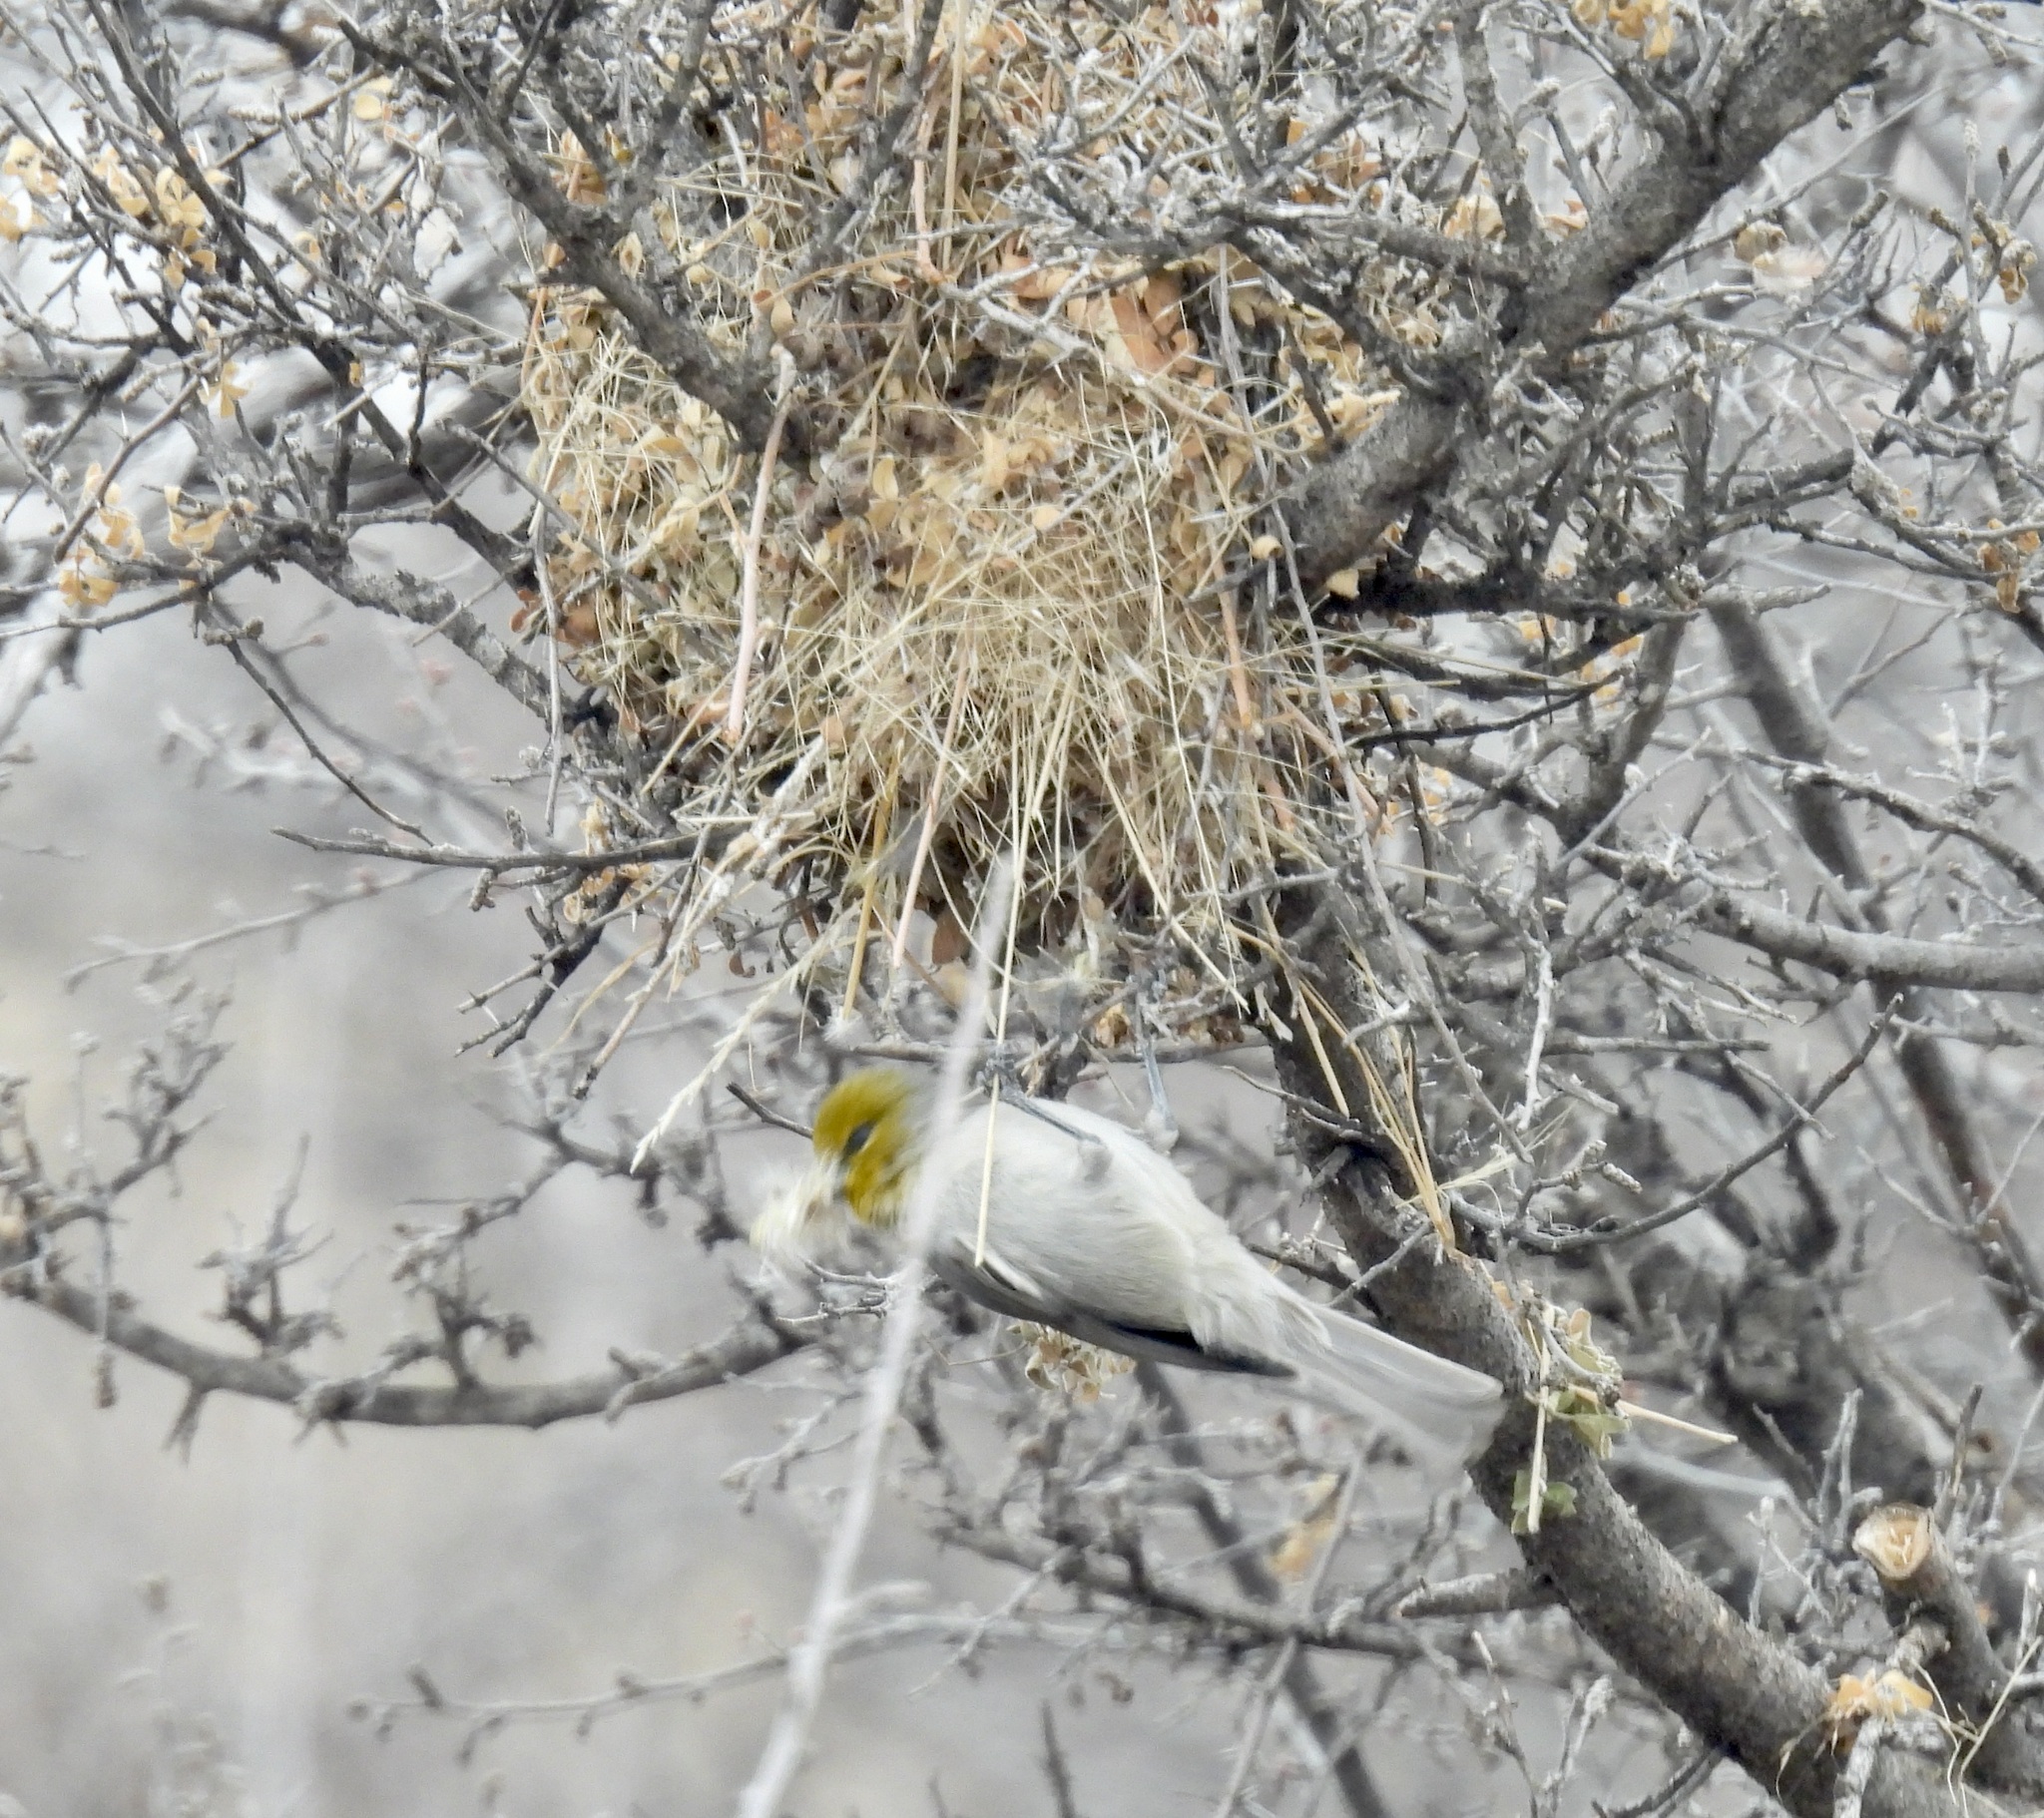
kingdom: Animalia
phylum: Chordata
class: Aves
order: Passeriformes
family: Remizidae
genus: Auriparus
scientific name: Auriparus flaviceps
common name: Verdin
